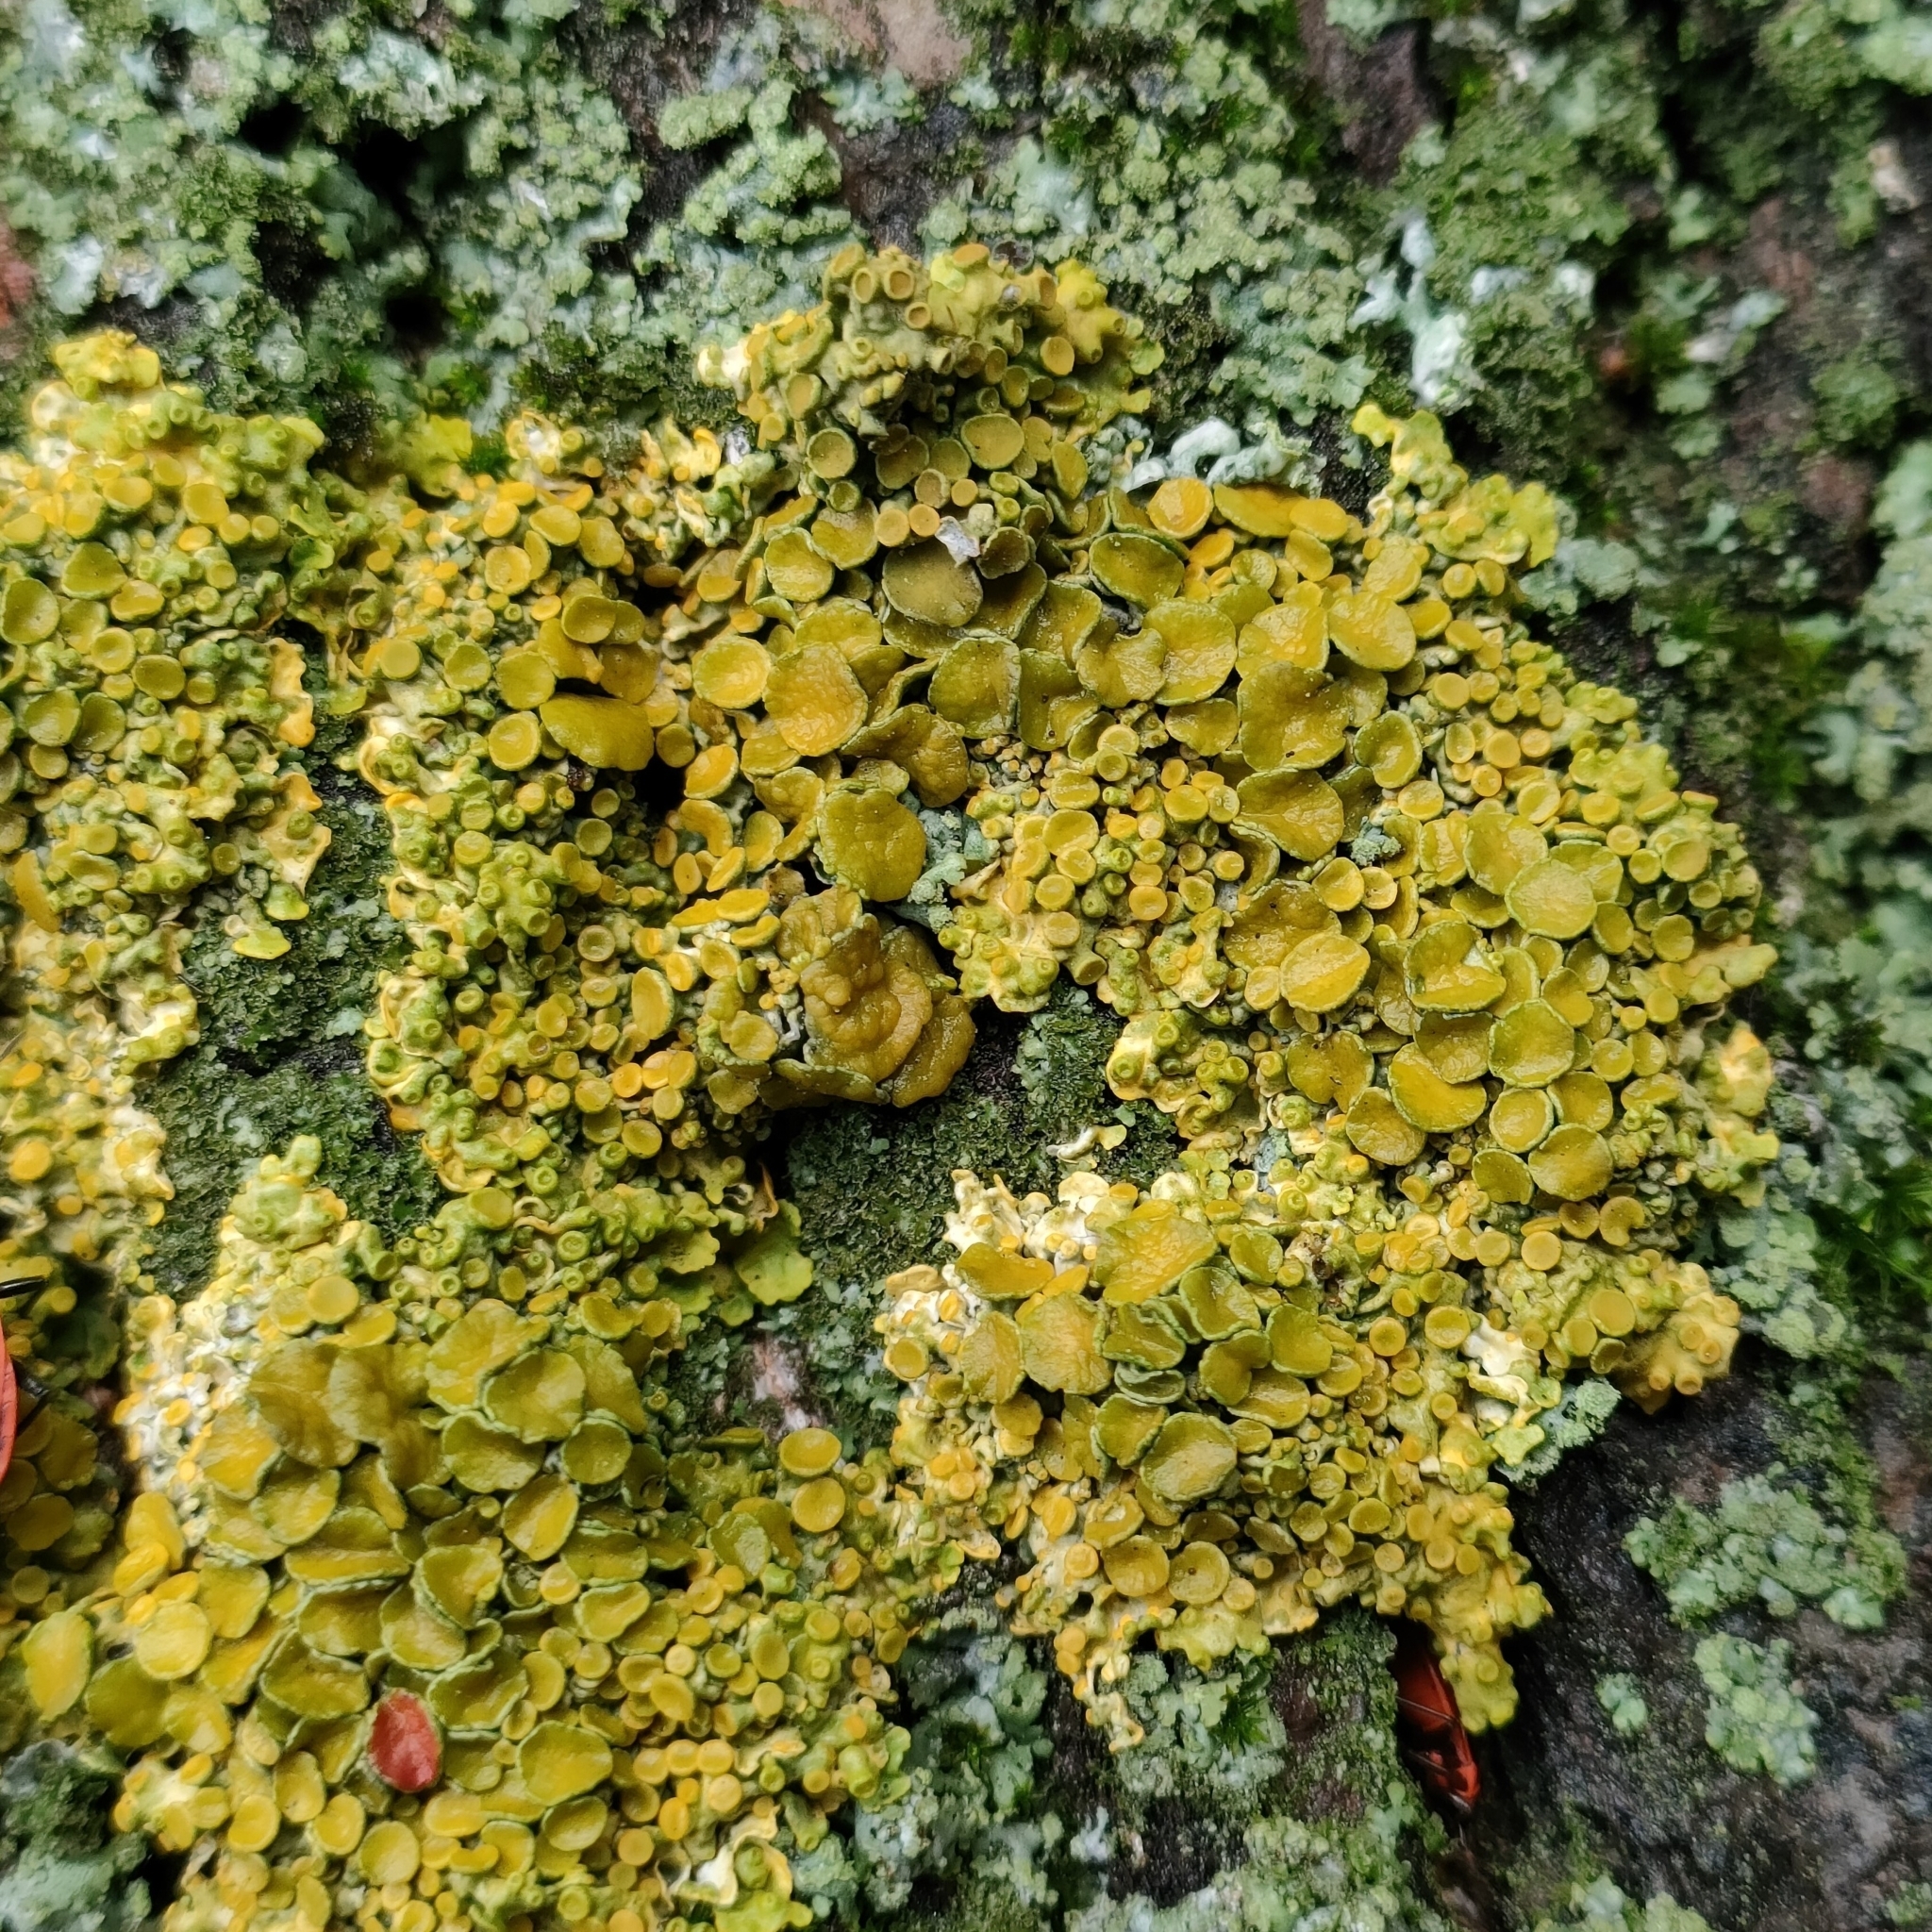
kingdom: Fungi
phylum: Ascomycota
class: Lecanoromycetes
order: Teloschistales
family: Teloschistaceae
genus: Xanthoria
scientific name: Xanthoria parietina
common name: Common orange lichen
